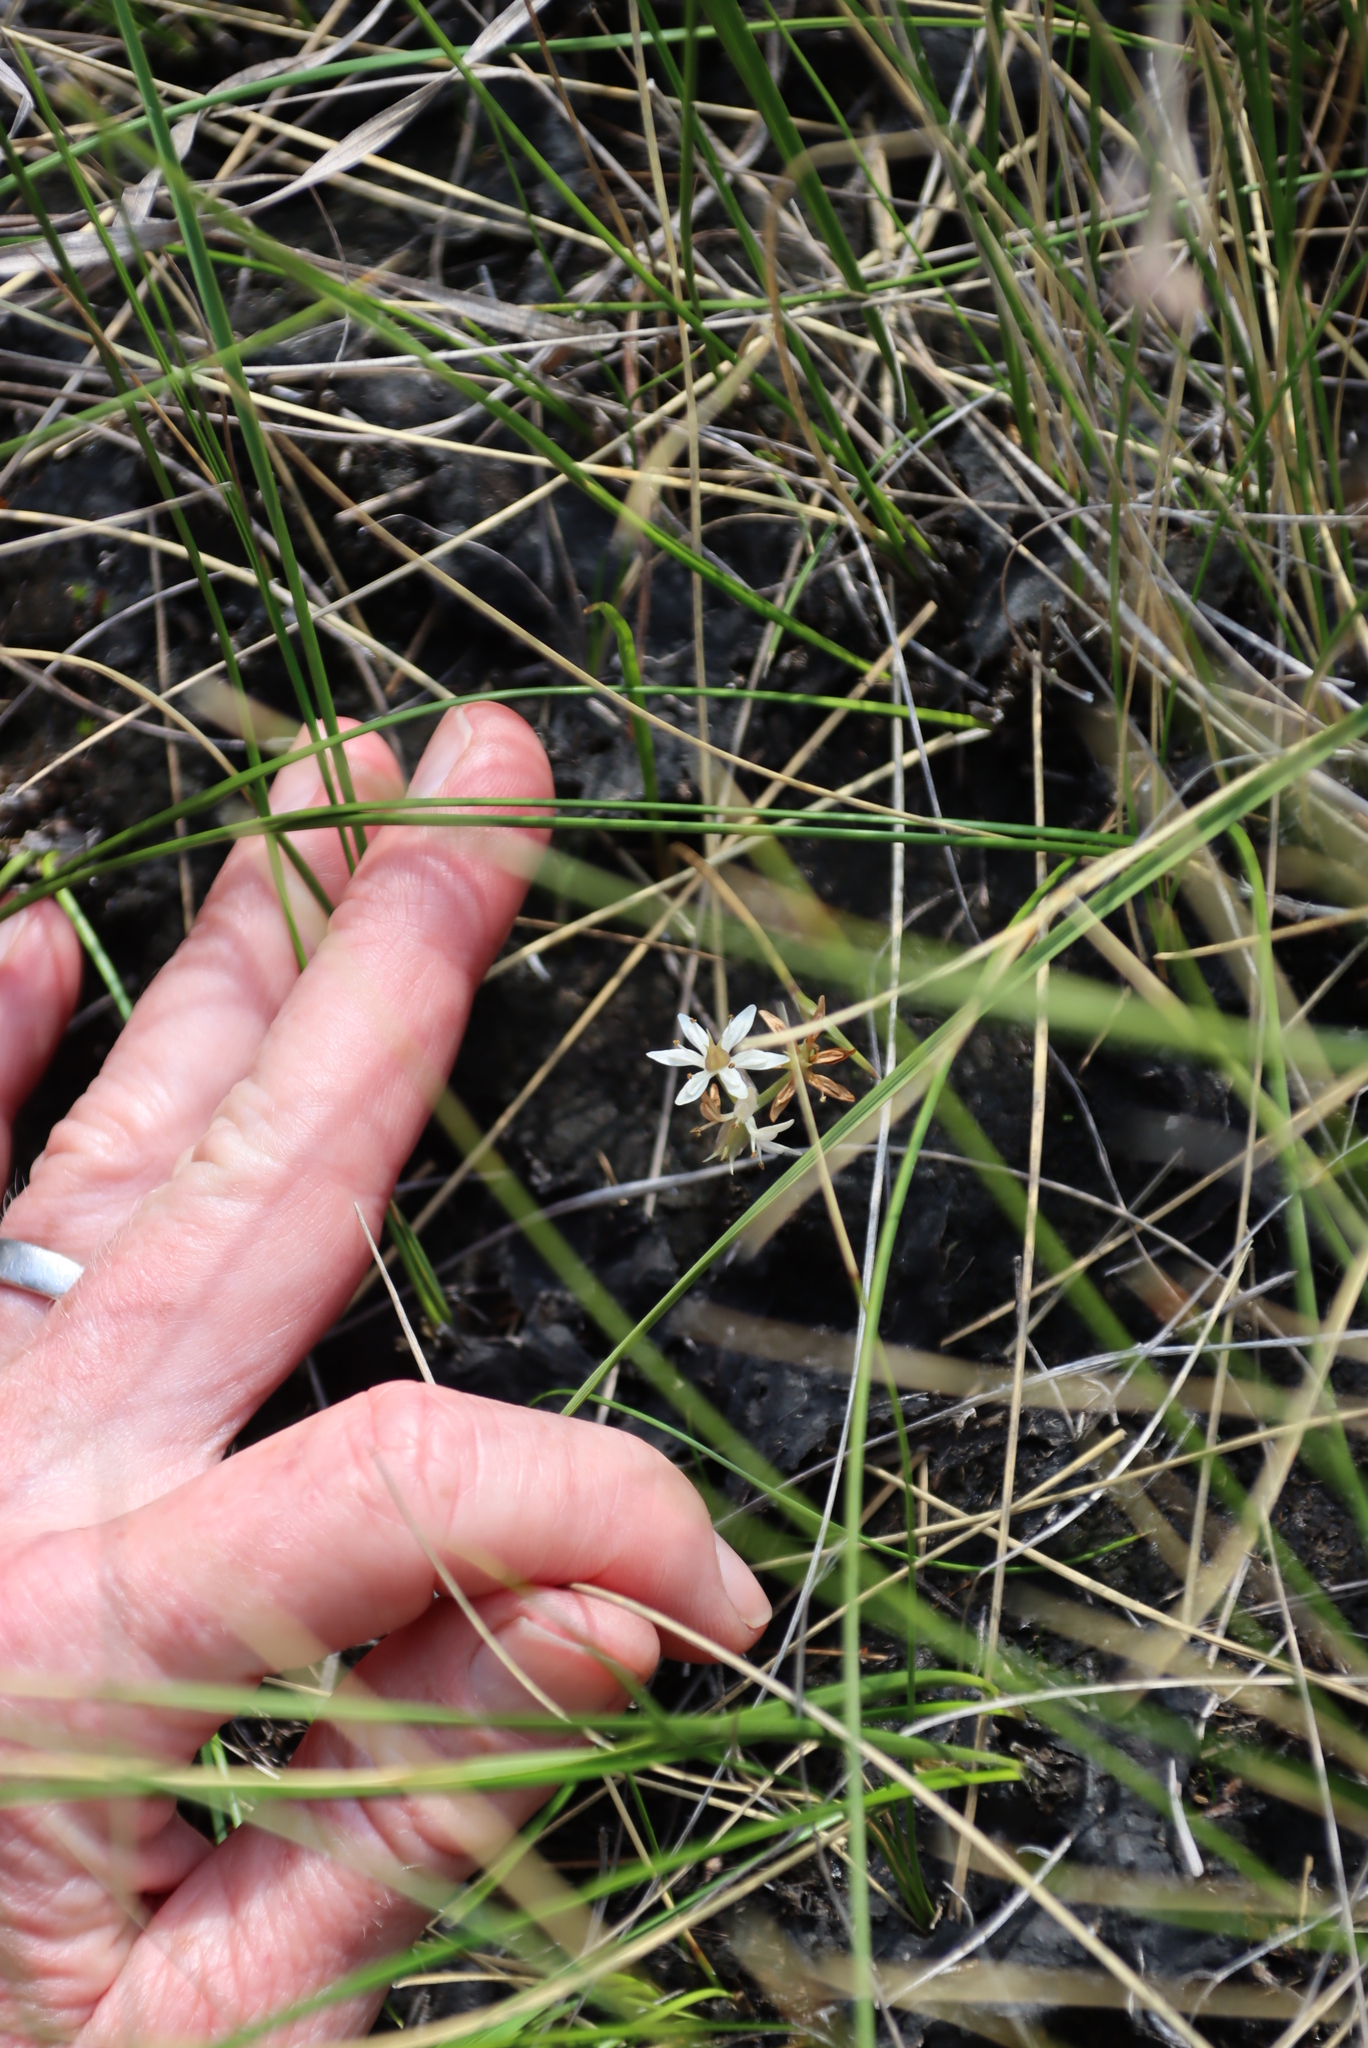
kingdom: Plantae
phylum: Tracheophyta
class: Liliopsida
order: Liliales
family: Colchicaceae
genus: Wurmbea
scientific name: Wurmbea kraussii
